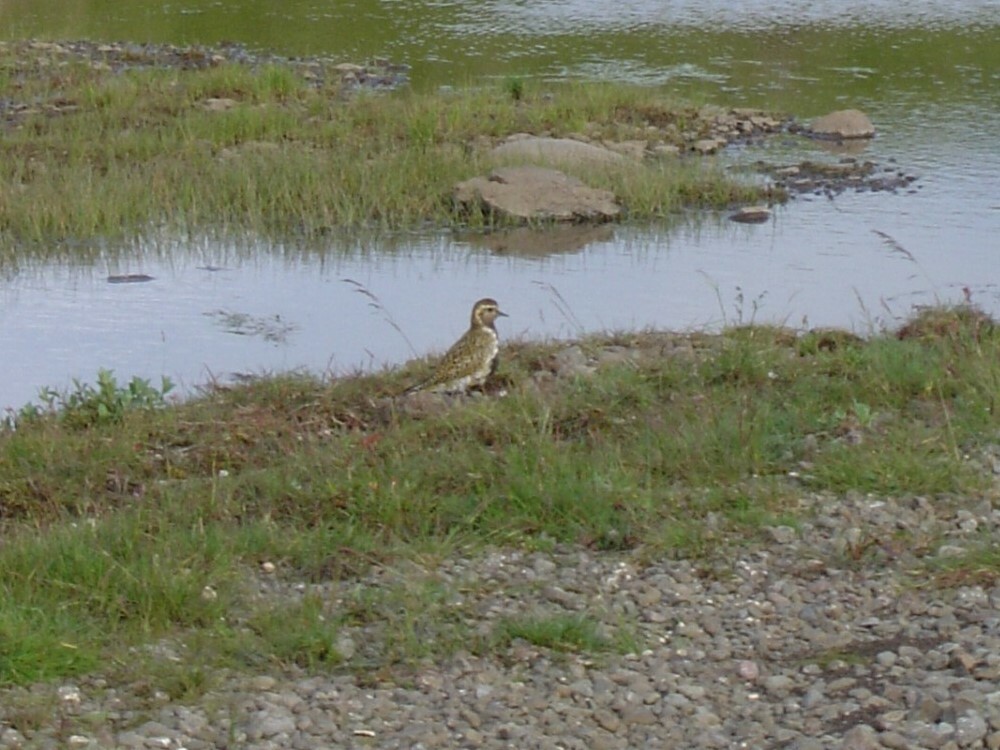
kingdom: Animalia
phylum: Chordata
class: Aves
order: Charadriiformes
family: Charadriidae
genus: Pluvialis
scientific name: Pluvialis apricaria
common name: European golden plover
